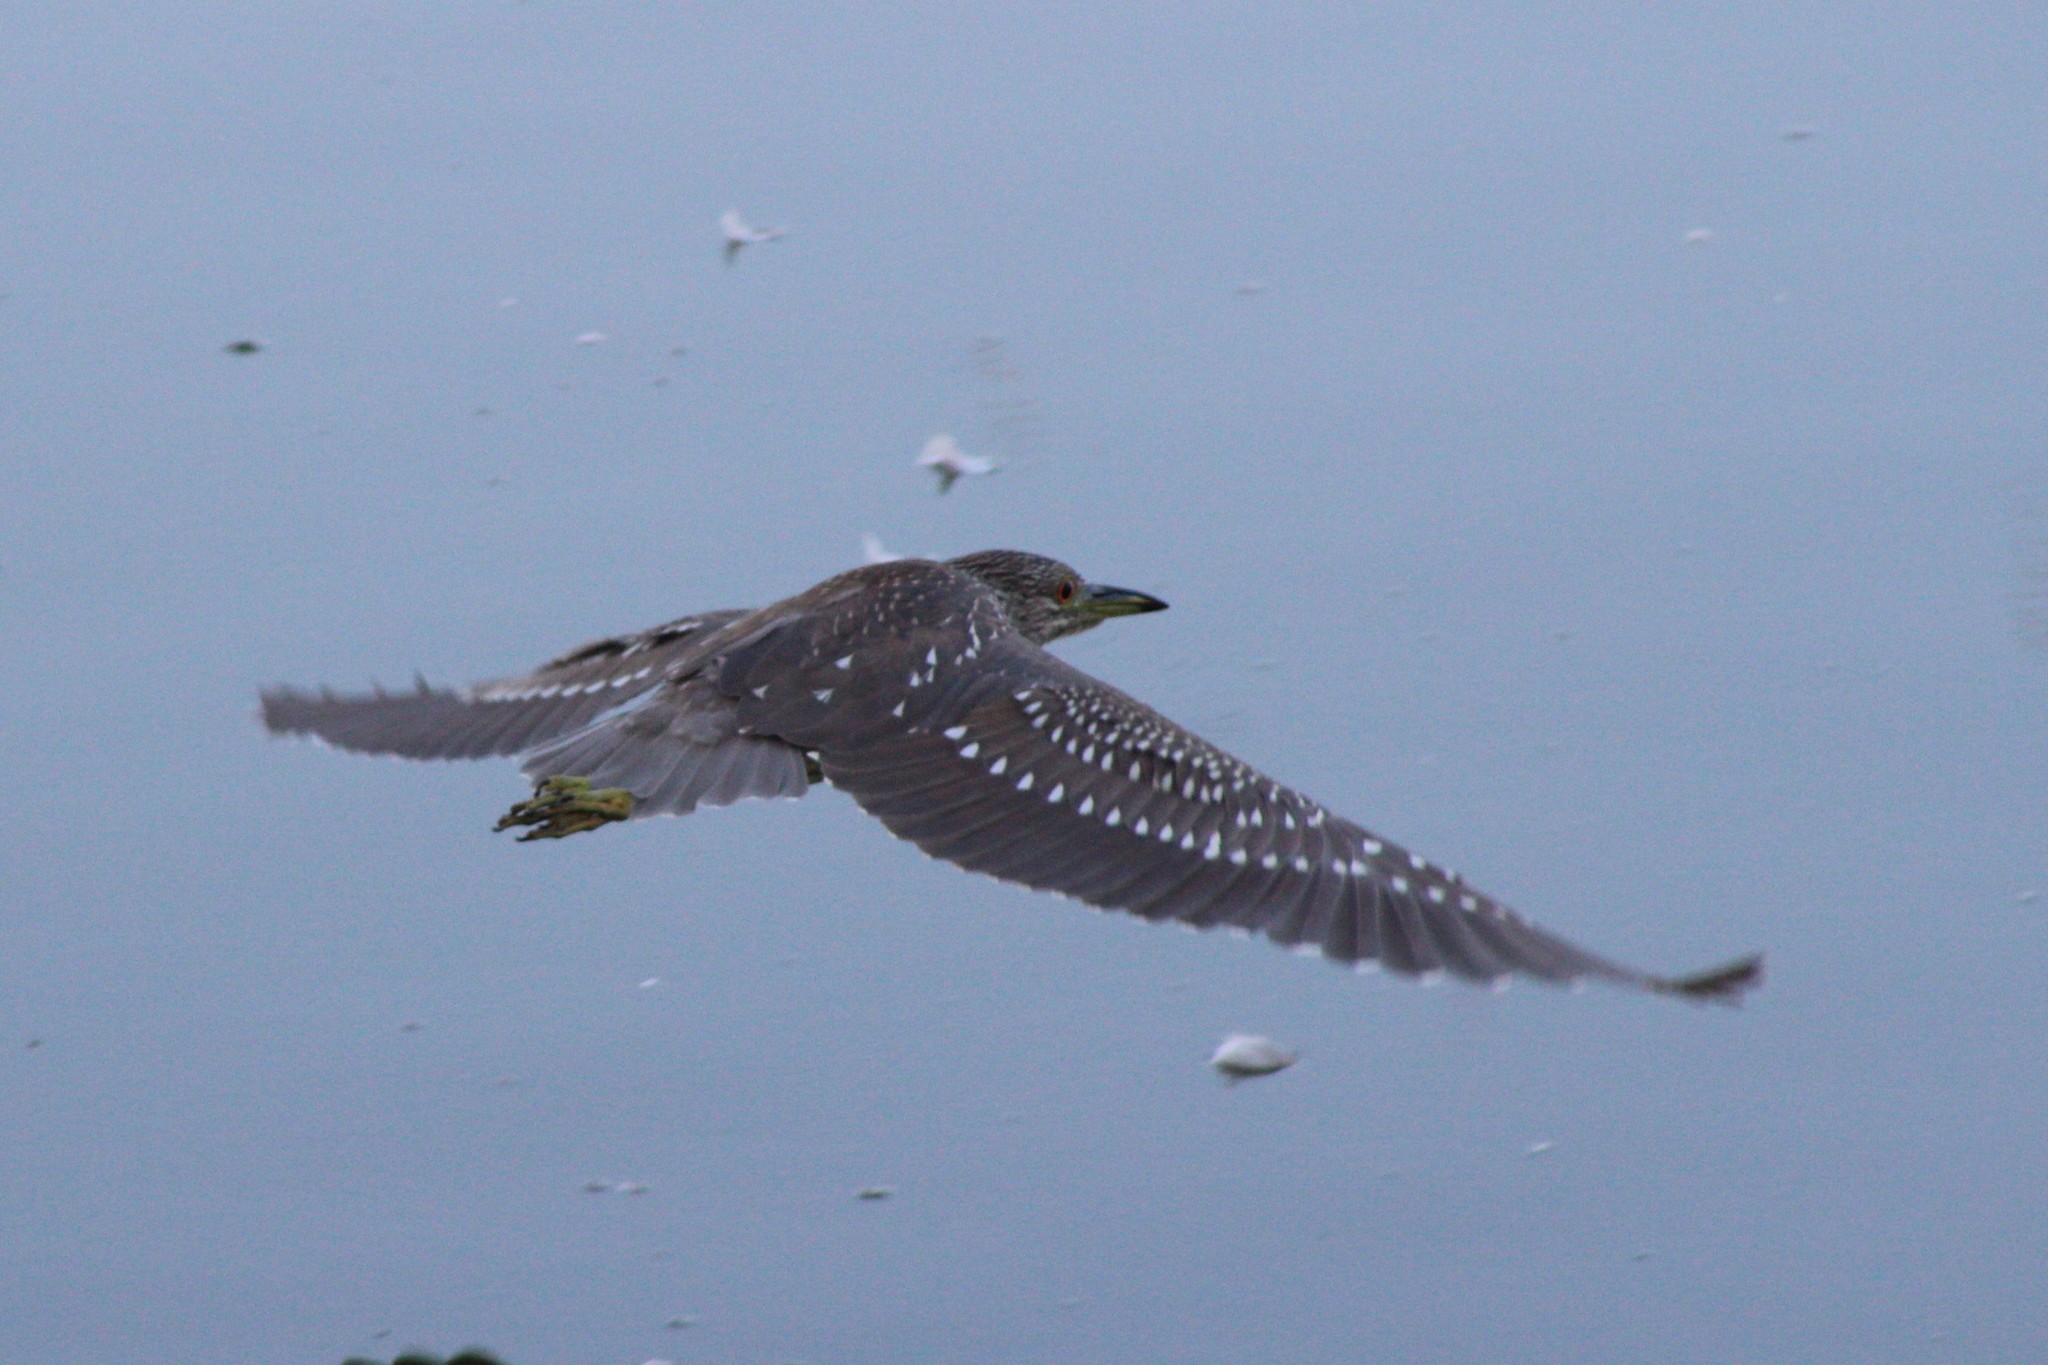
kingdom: Animalia
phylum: Chordata
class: Aves
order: Pelecaniformes
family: Ardeidae
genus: Nycticorax
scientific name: Nycticorax nycticorax
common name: Black-crowned night heron
